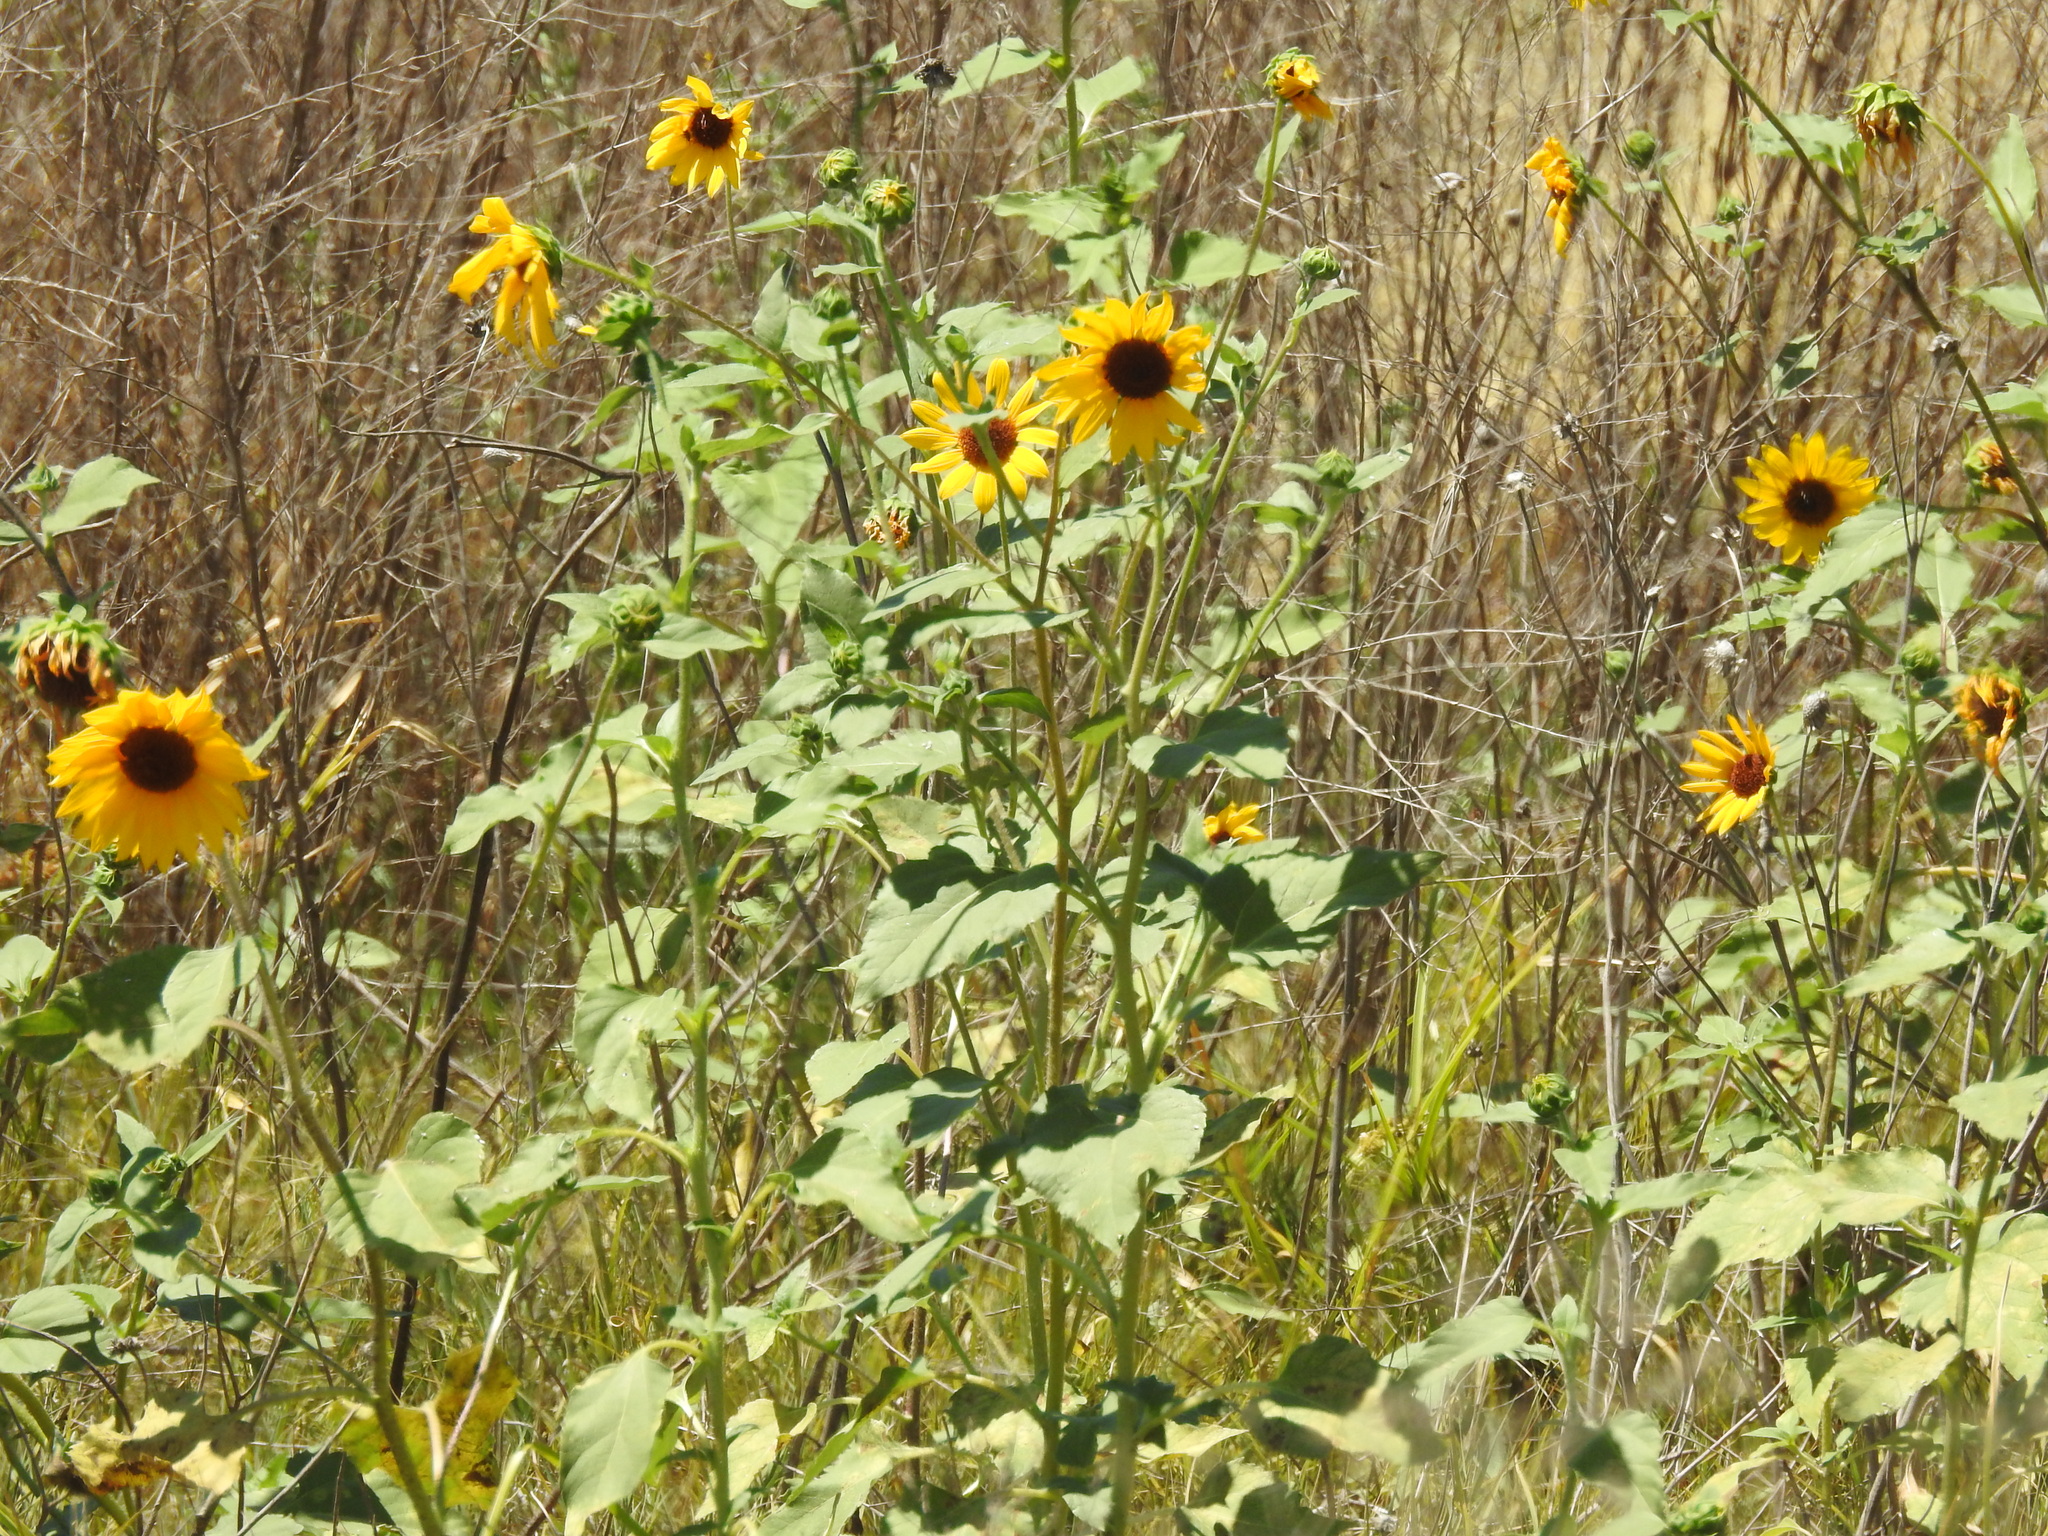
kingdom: Plantae
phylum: Tracheophyta
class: Magnoliopsida
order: Asterales
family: Asteraceae
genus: Helianthus
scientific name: Helianthus annuus
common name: Sunflower
